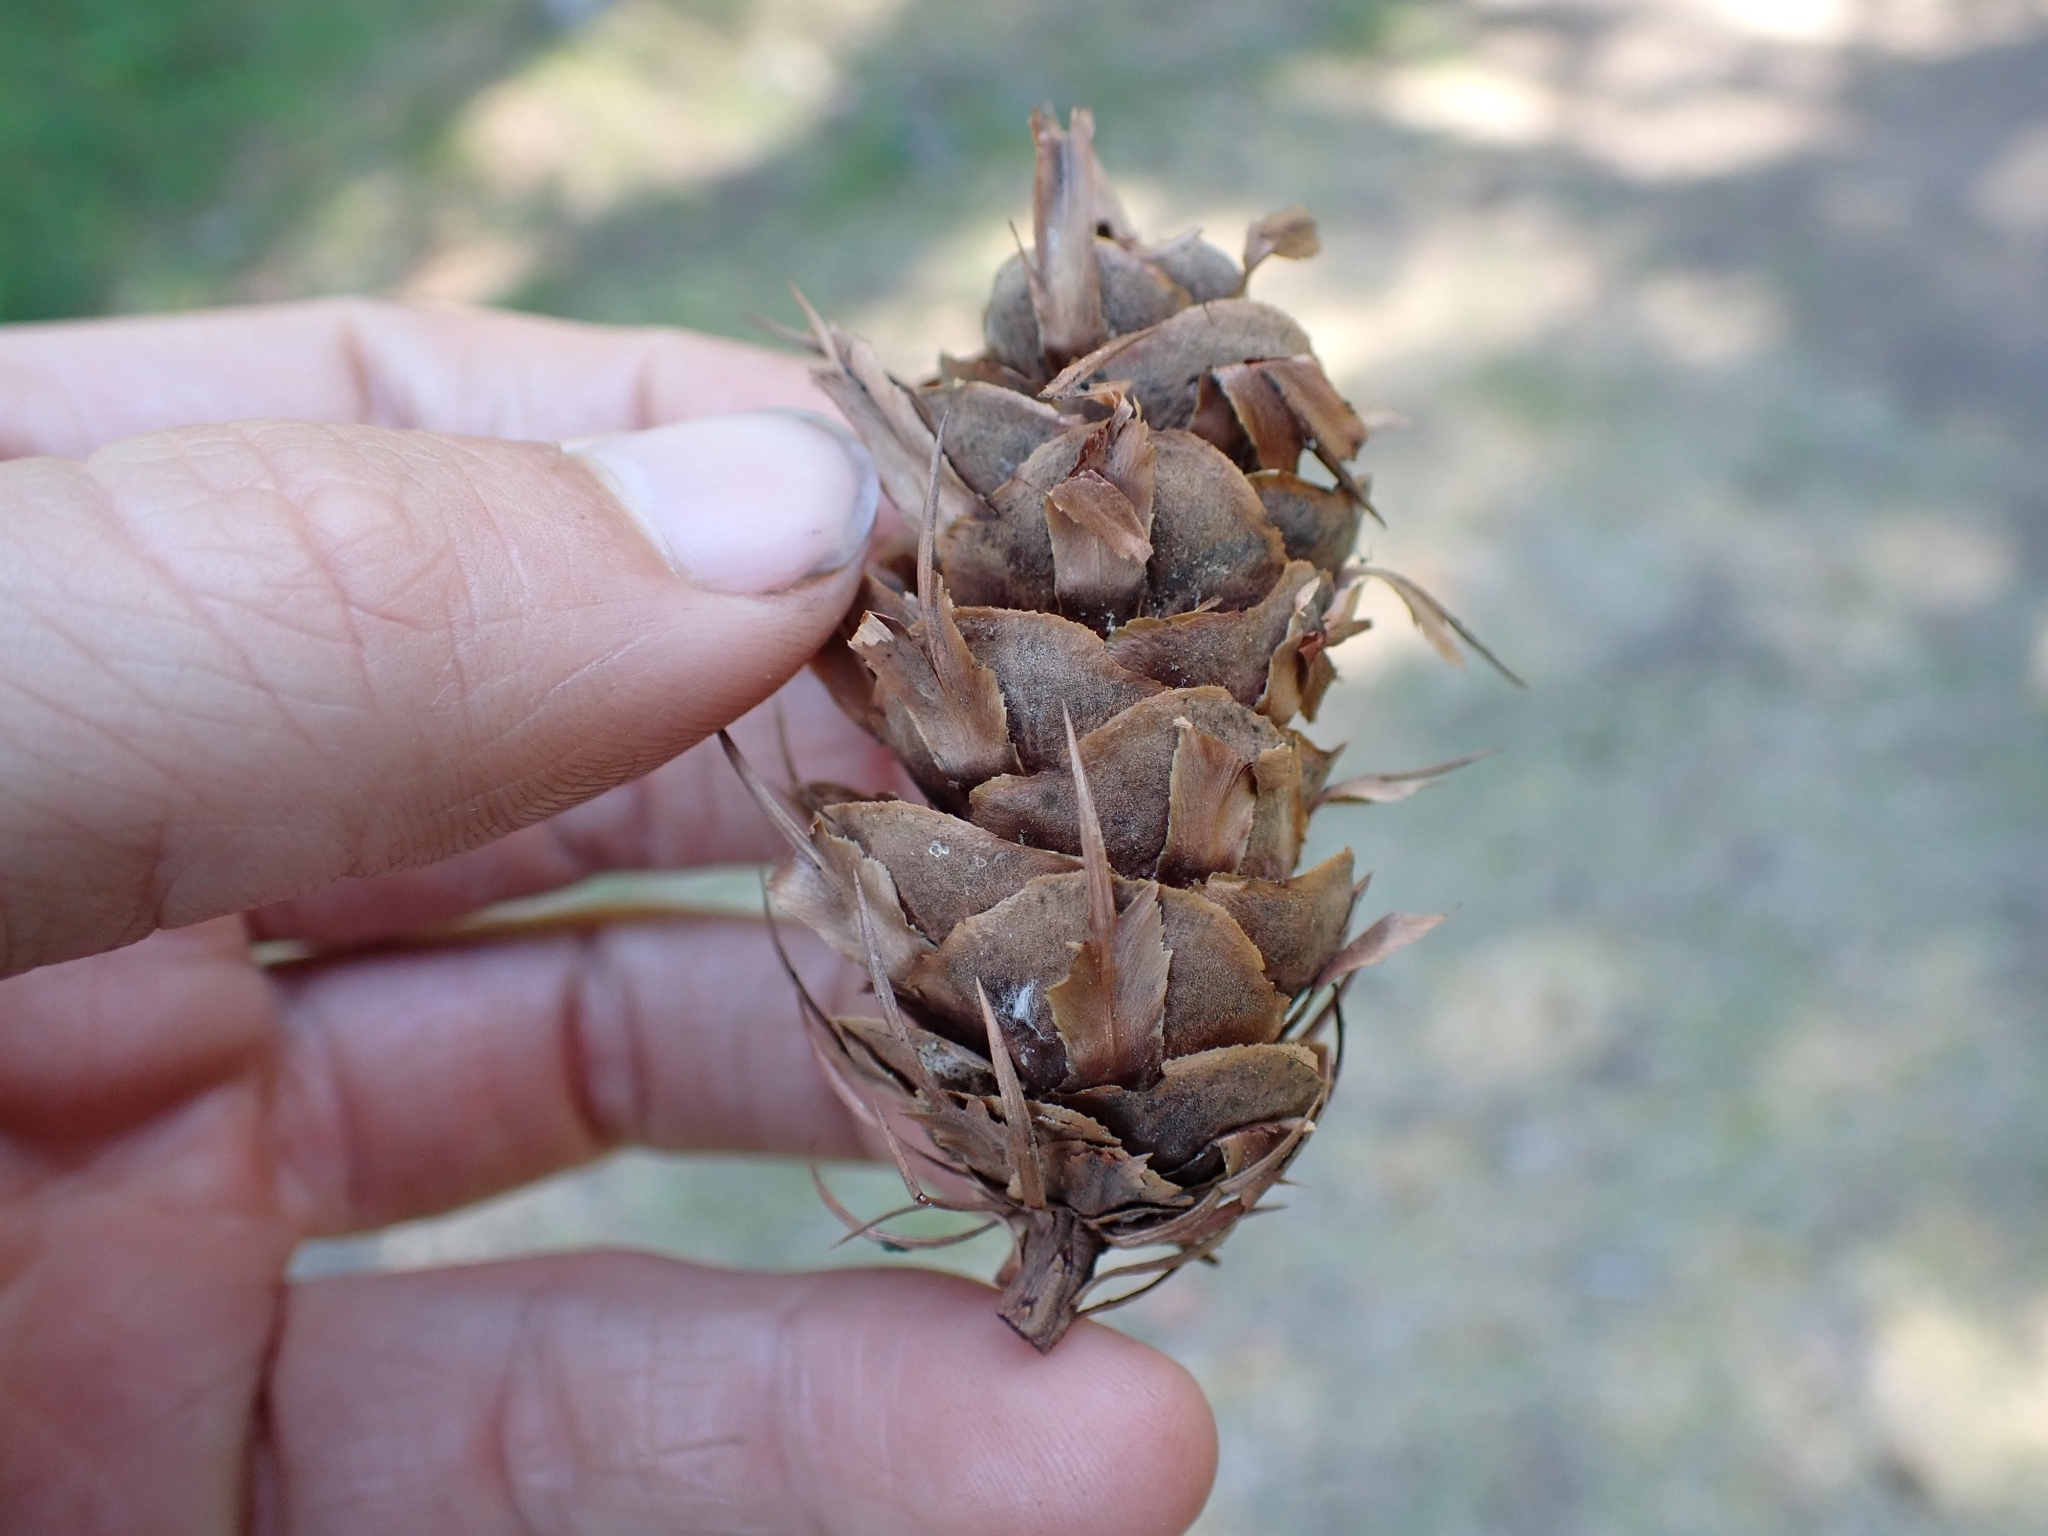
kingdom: Plantae
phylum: Tracheophyta
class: Pinopsida
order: Pinales
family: Pinaceae
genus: Pseudotsuga
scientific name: Pseudotsuga menziesii
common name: Douglas fir
